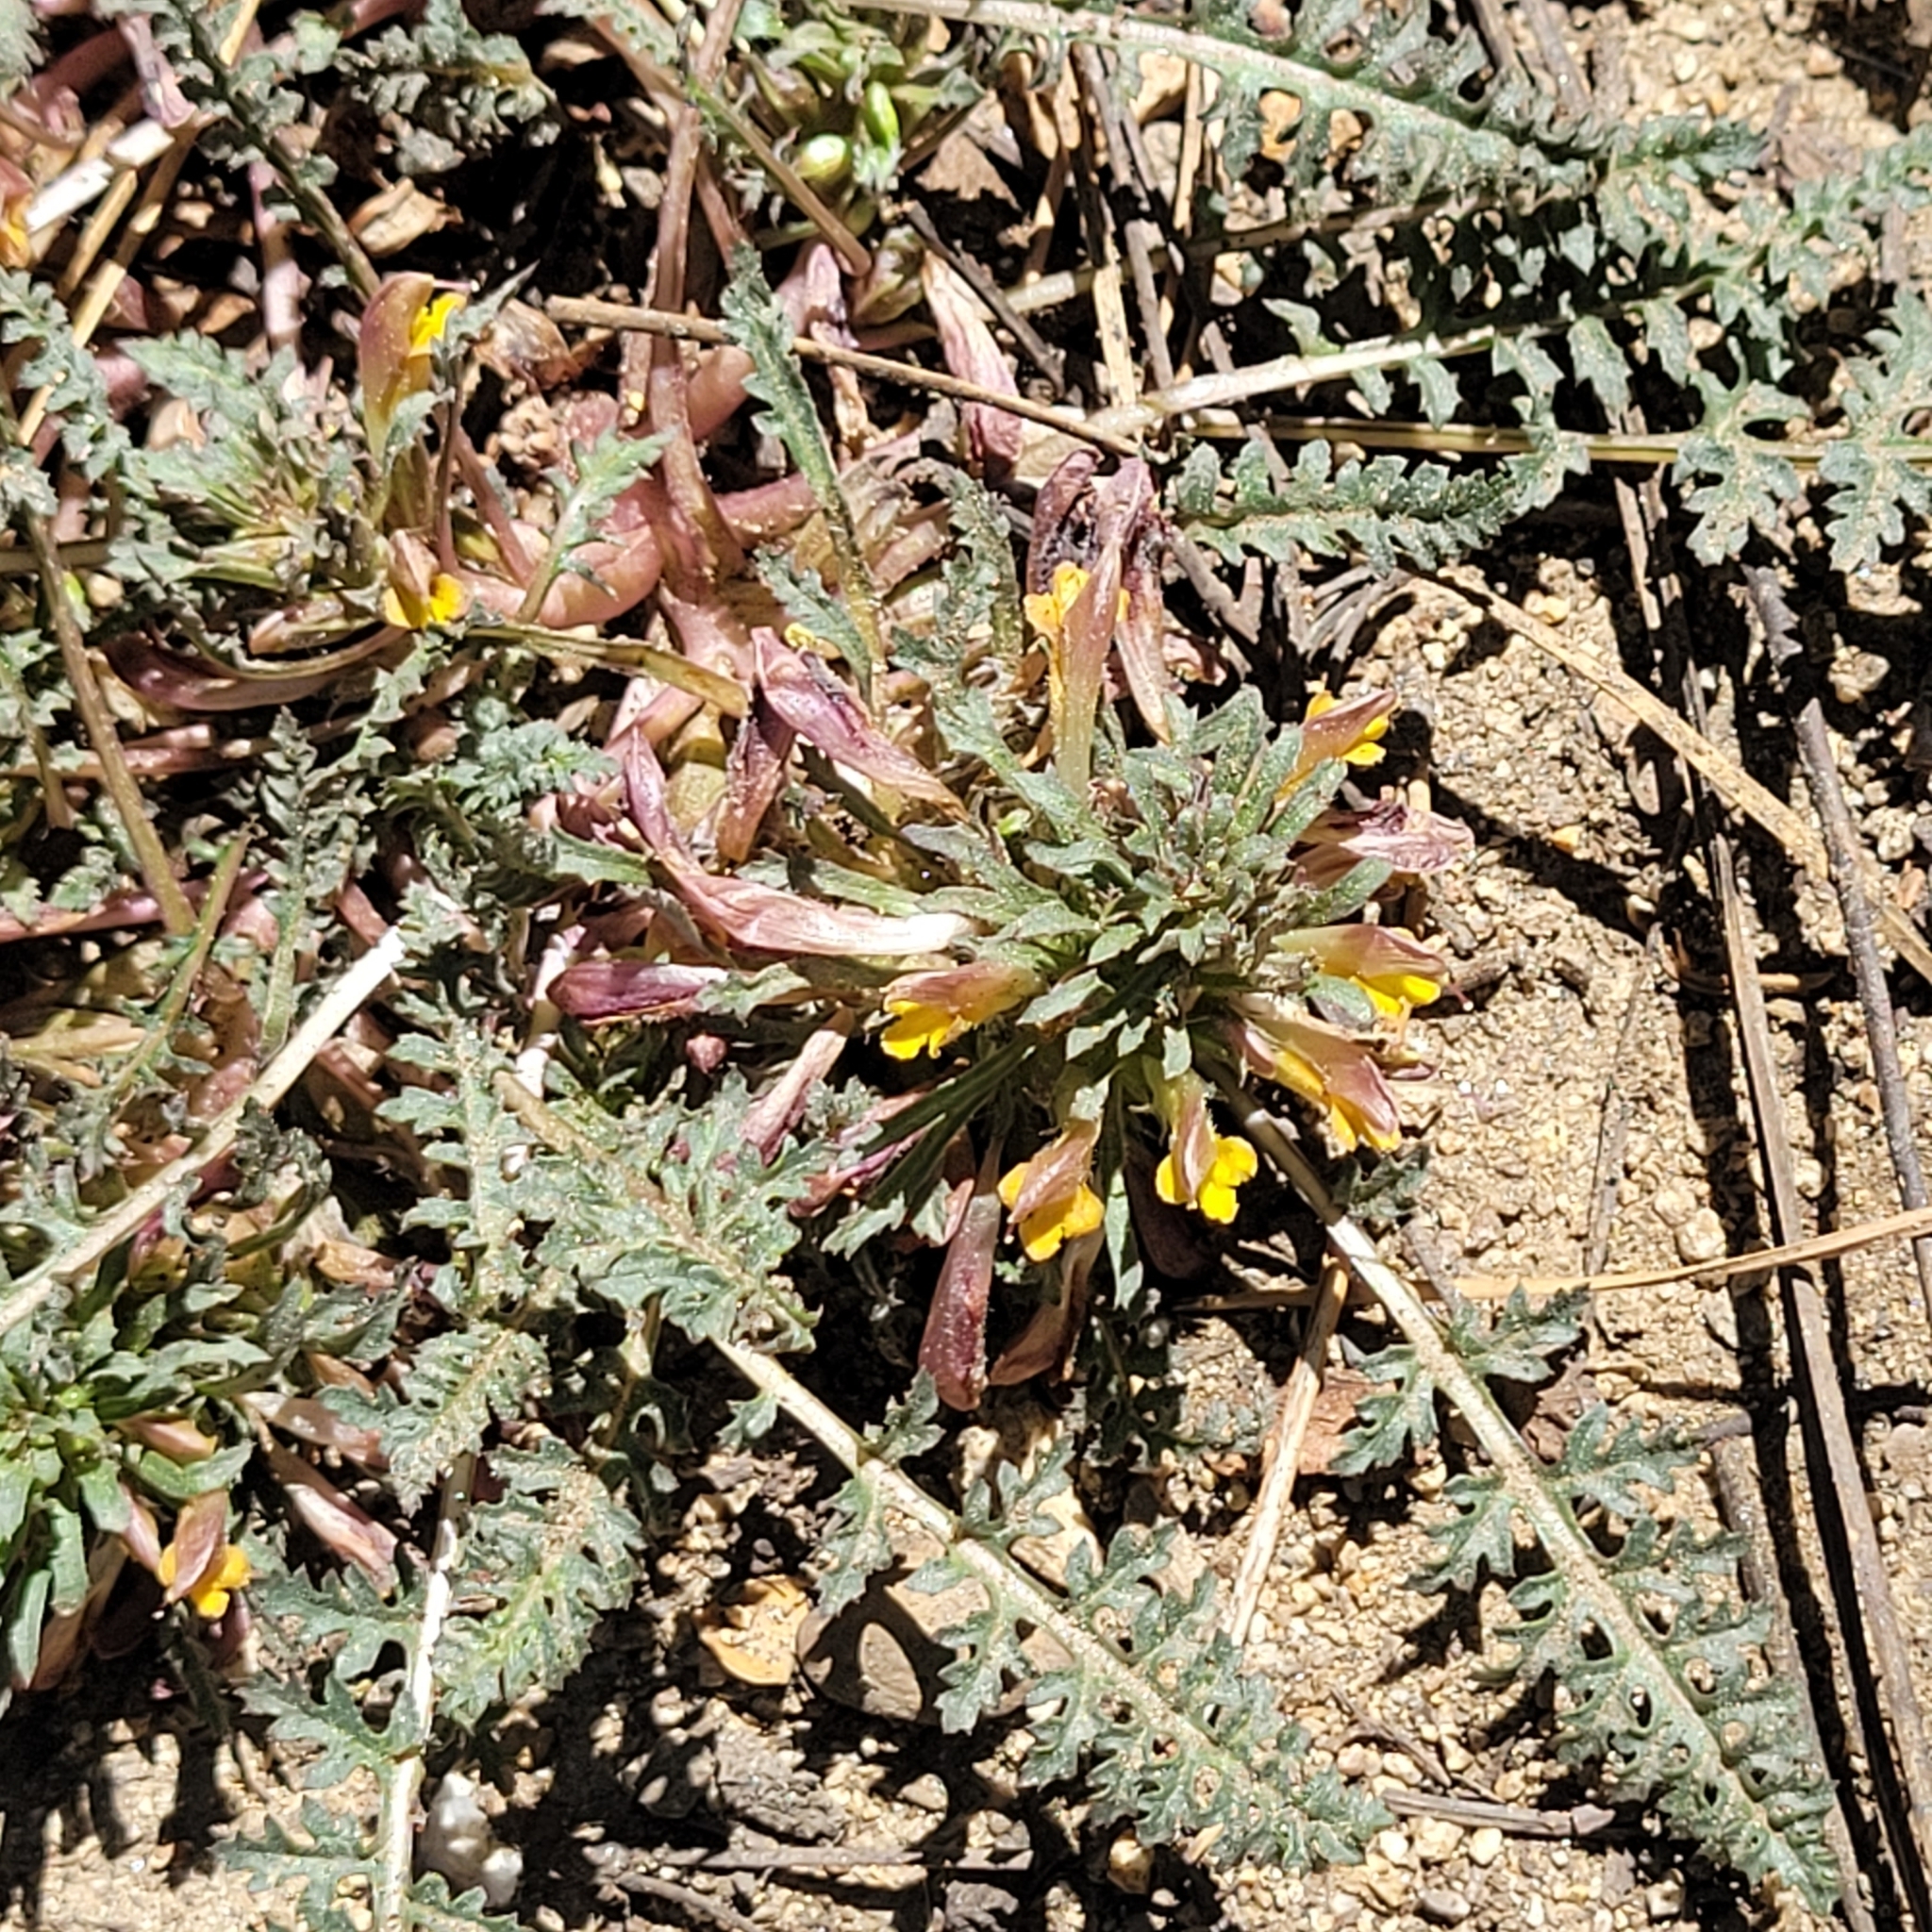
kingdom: Plantae
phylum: Tracheophyta
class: Magnoliopsida
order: Lamiales
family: Orobanchaceae
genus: Pedicularis
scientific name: Pedicularis semibarbata
